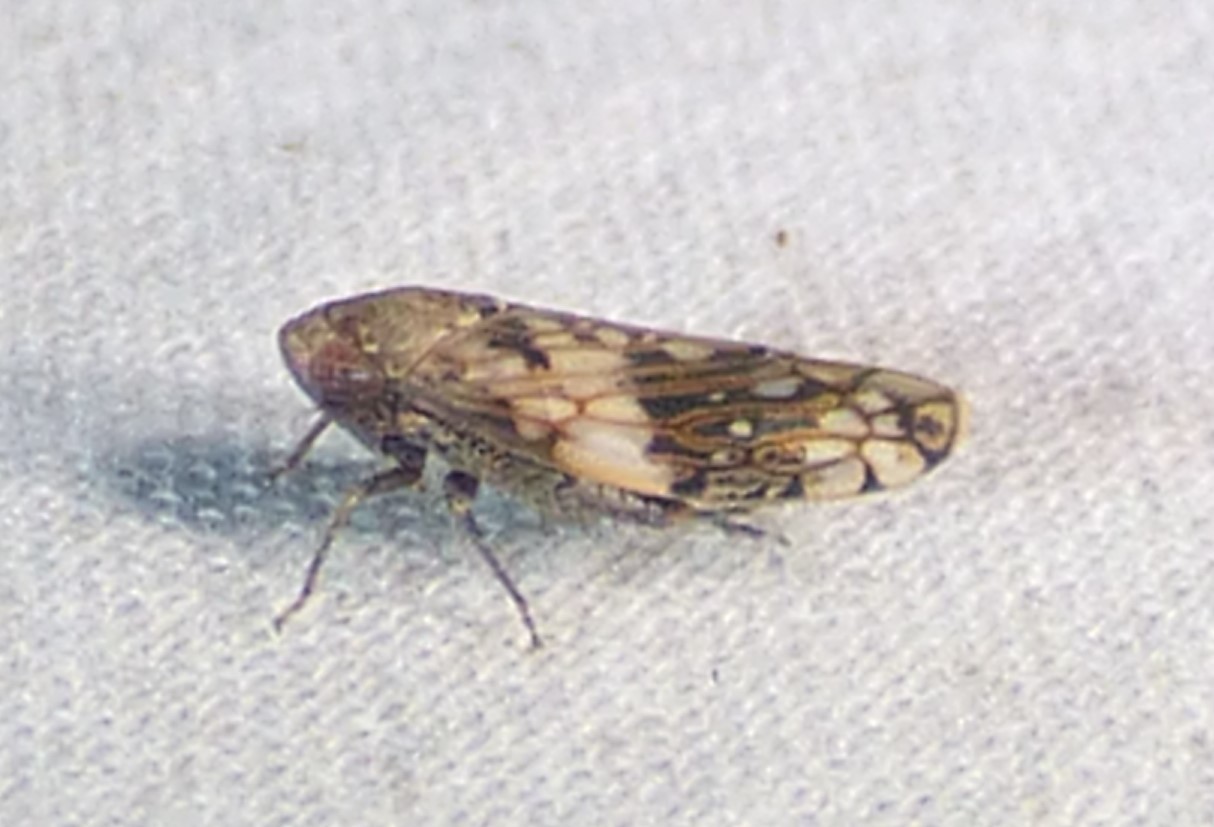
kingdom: Animalia
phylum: Arthropoda
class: Insecta
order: Hemiptera
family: Cicadellidae
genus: Menosoma
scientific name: Menosoma cinctum
